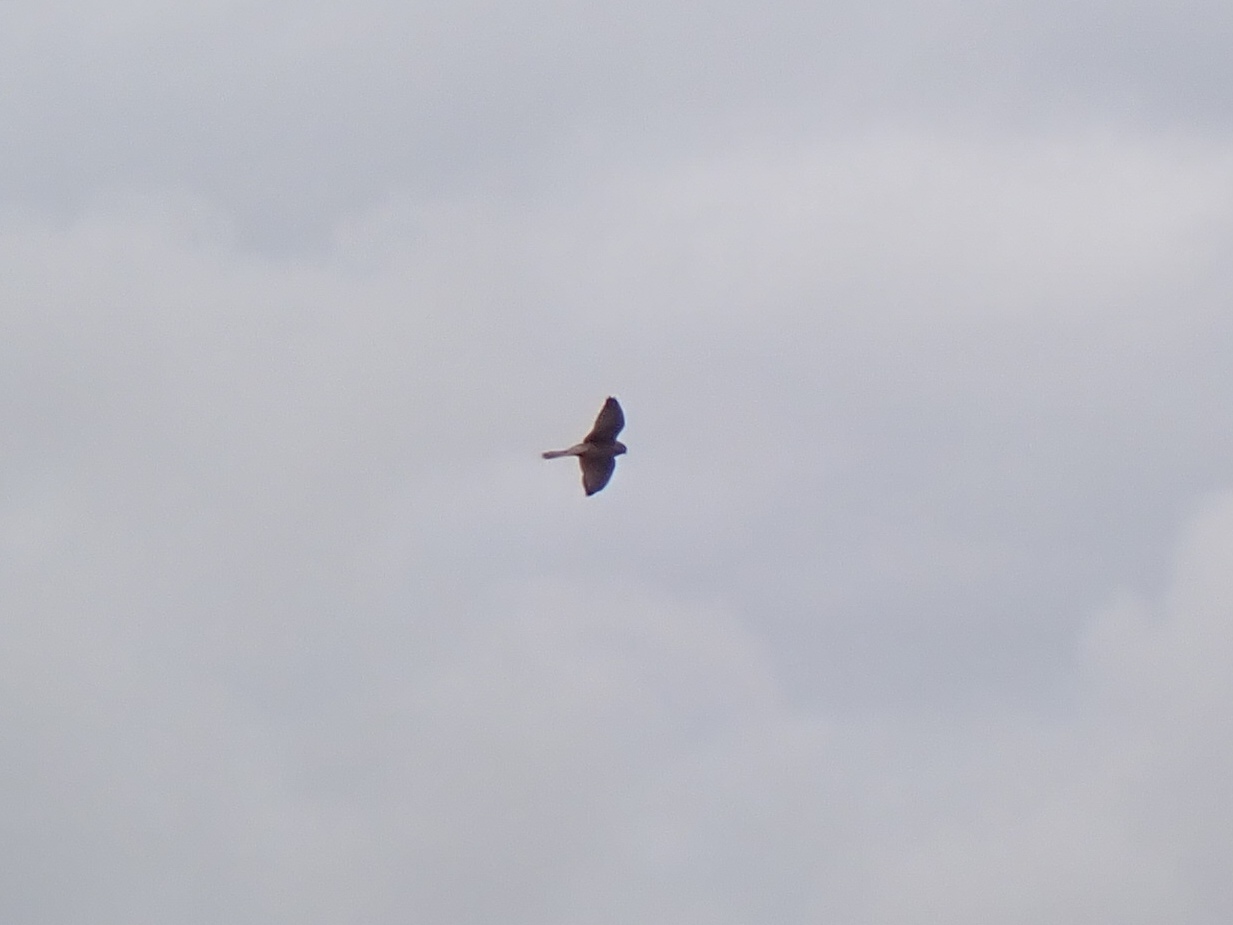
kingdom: Animalia
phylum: Chordata
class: Aves
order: Falconiformes
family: Falconidae
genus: Falco
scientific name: Falco tinnunculus
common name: Common kestrel
